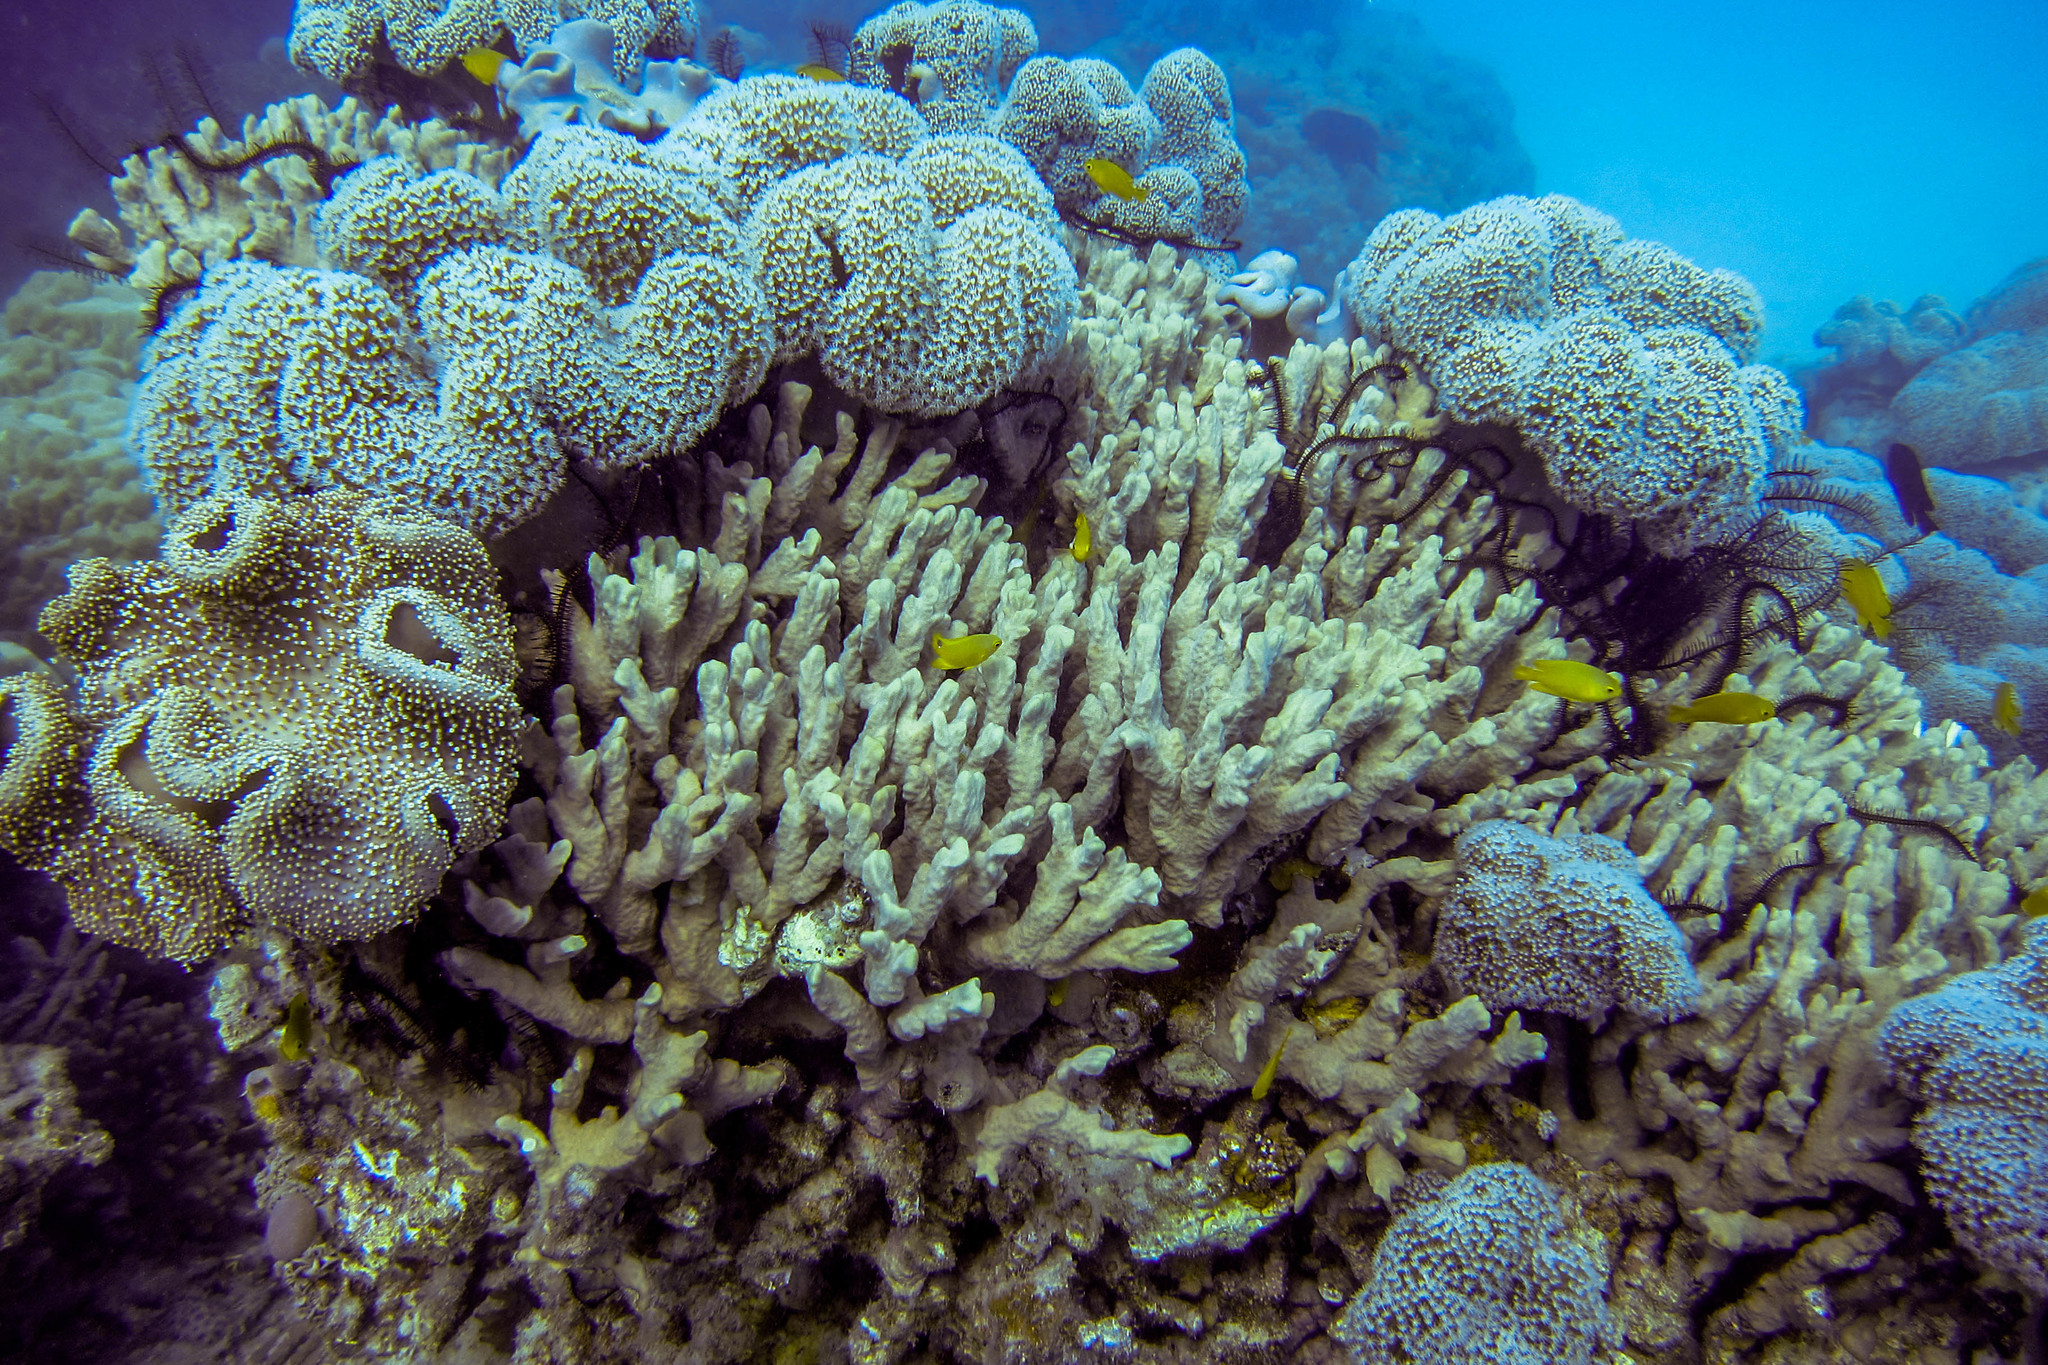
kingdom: Animalia
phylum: Chordata
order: Perciformes
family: Pomacentridae
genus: Pomacentrus
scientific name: Pomacentrus moluccensis
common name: Lemon damsel
